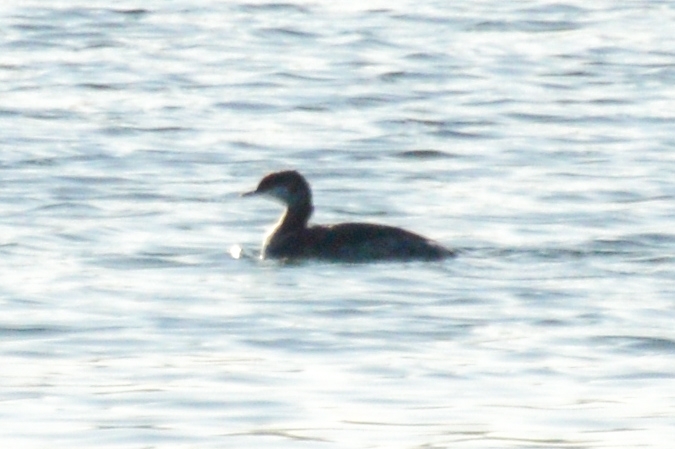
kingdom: Animalia
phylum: Chordata
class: Aves
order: Podicipediformes
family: Podicipedidae
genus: Podiceps
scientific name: Podiceps auritus
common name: Horned grebe
